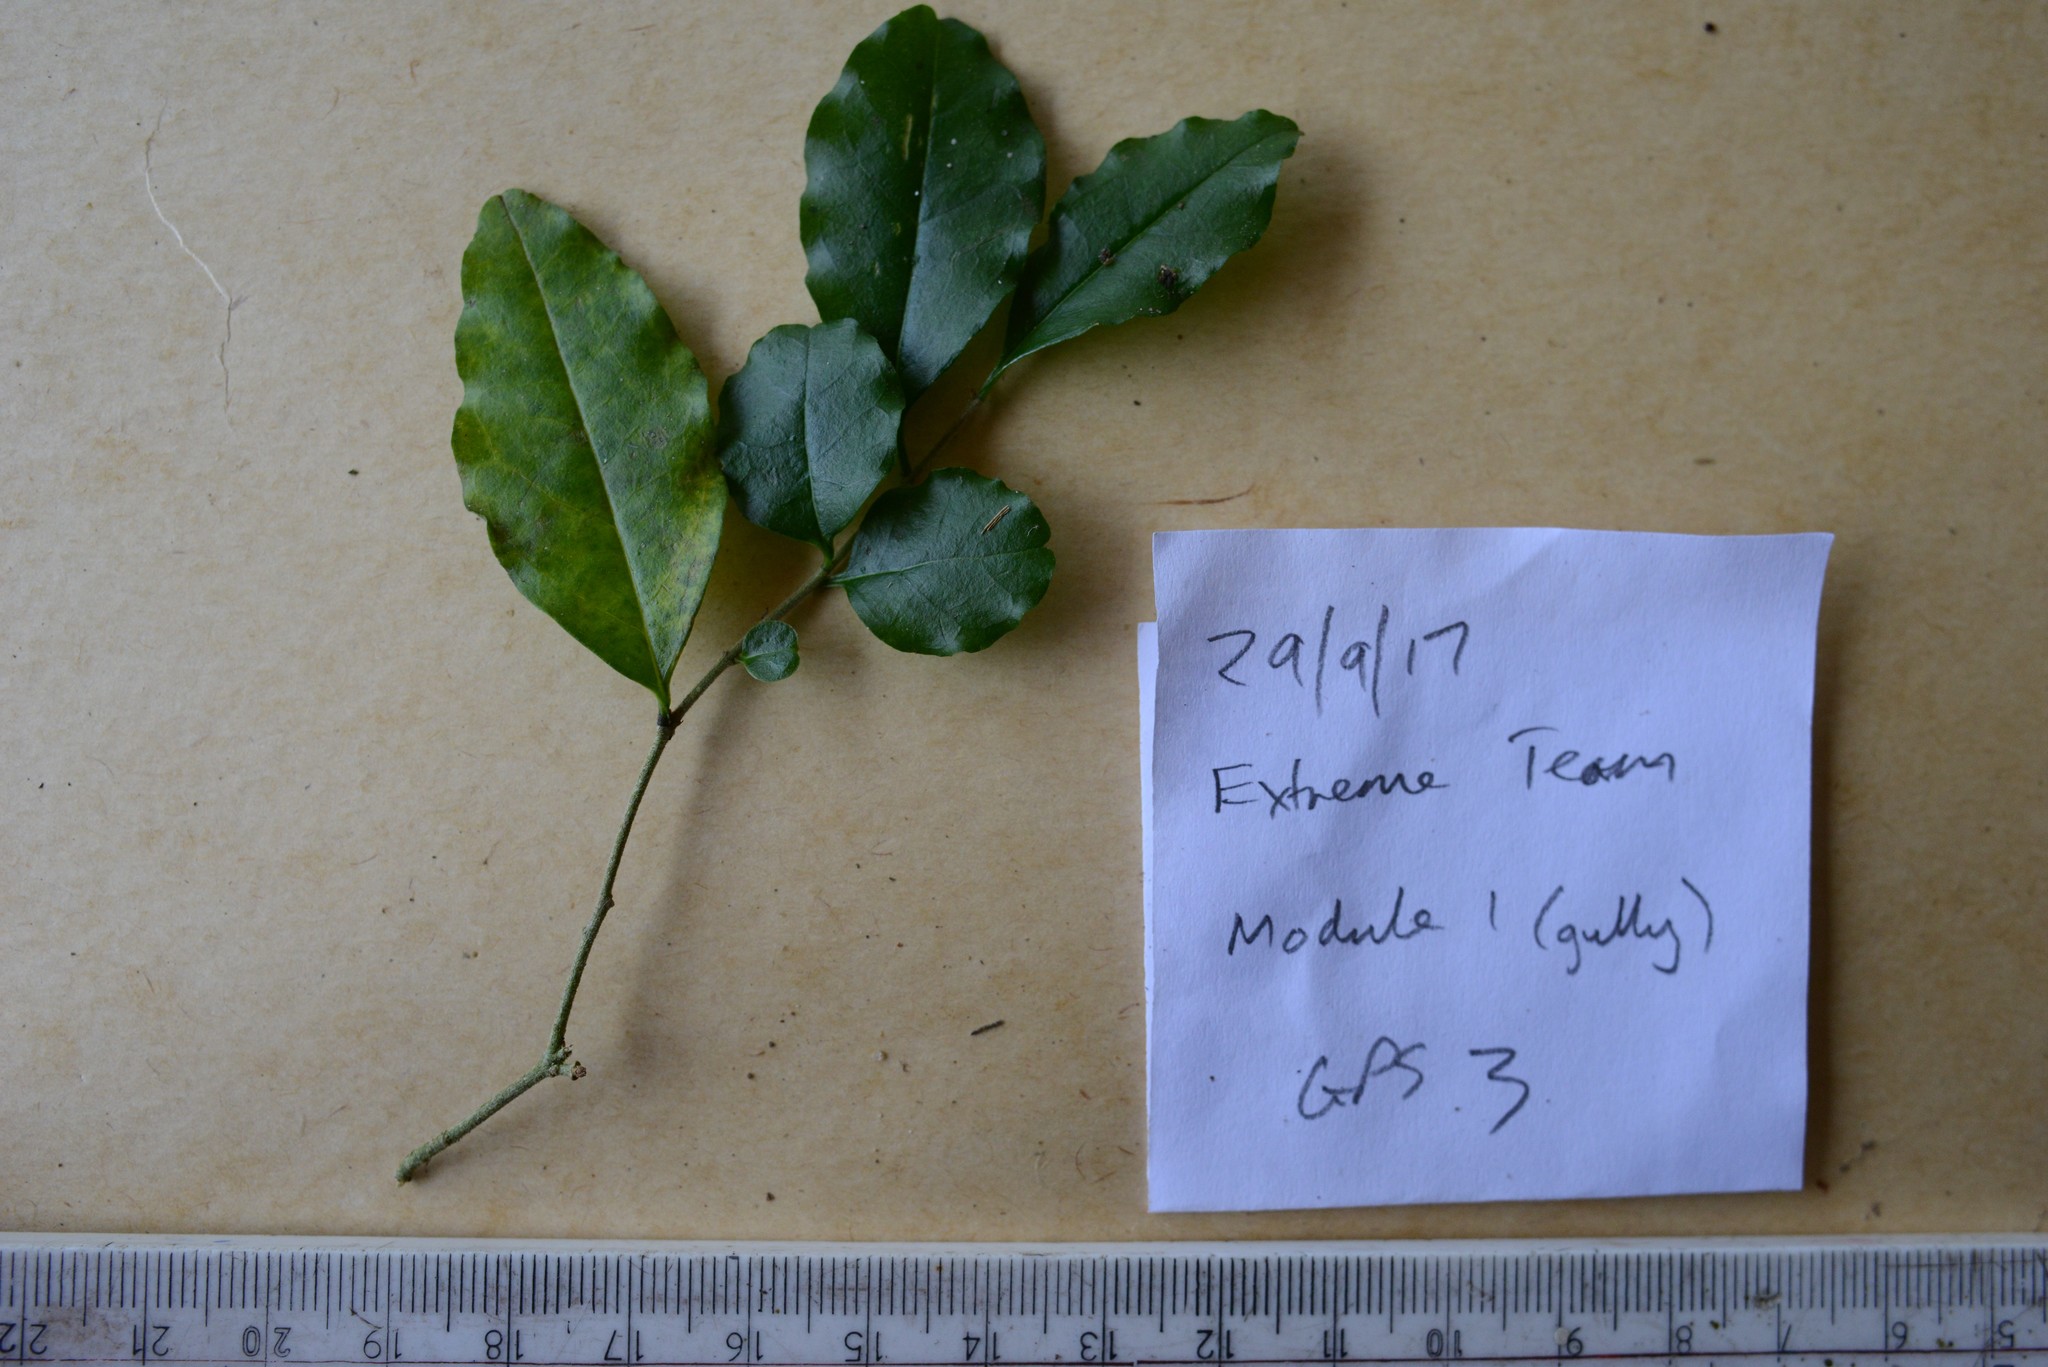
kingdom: Plantae
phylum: Tracheophyta
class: Magnoliopsida
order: Lamiales
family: Oleaceae
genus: Ligustrum
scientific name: Ligustrum sinense
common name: Chinese privet
